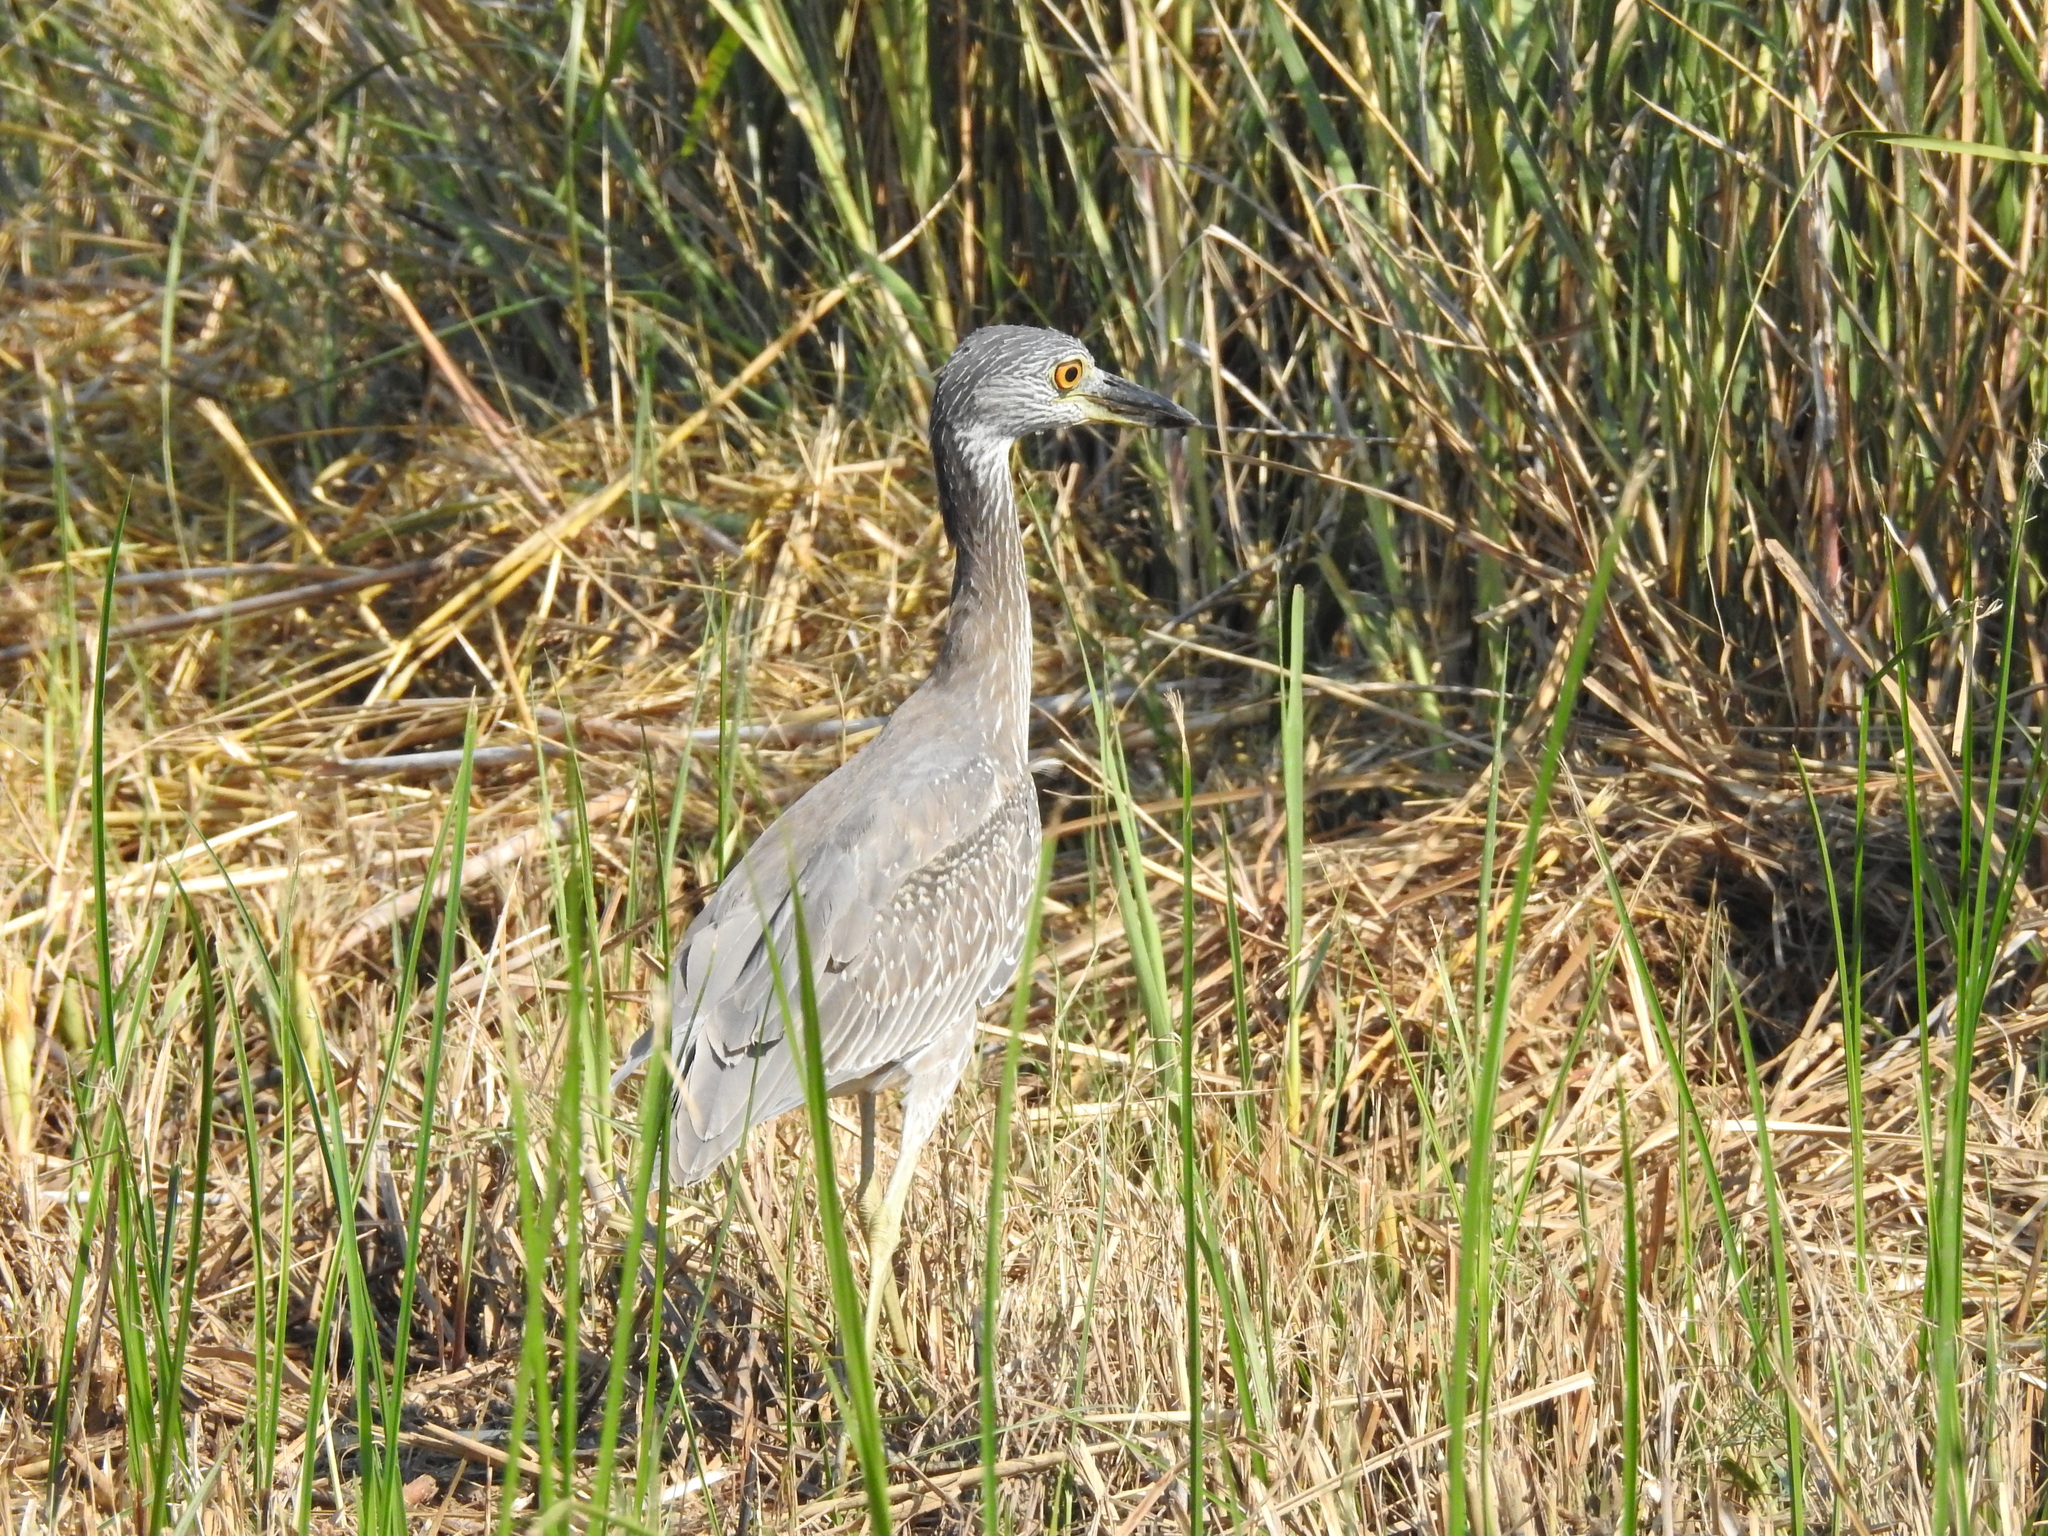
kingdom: Animalia
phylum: Chordata
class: Aves
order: Pelecaniformes
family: Ardeidae
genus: Nyctanassa
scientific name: Nyctanassa violacea
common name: Yellow-crowned night heron
